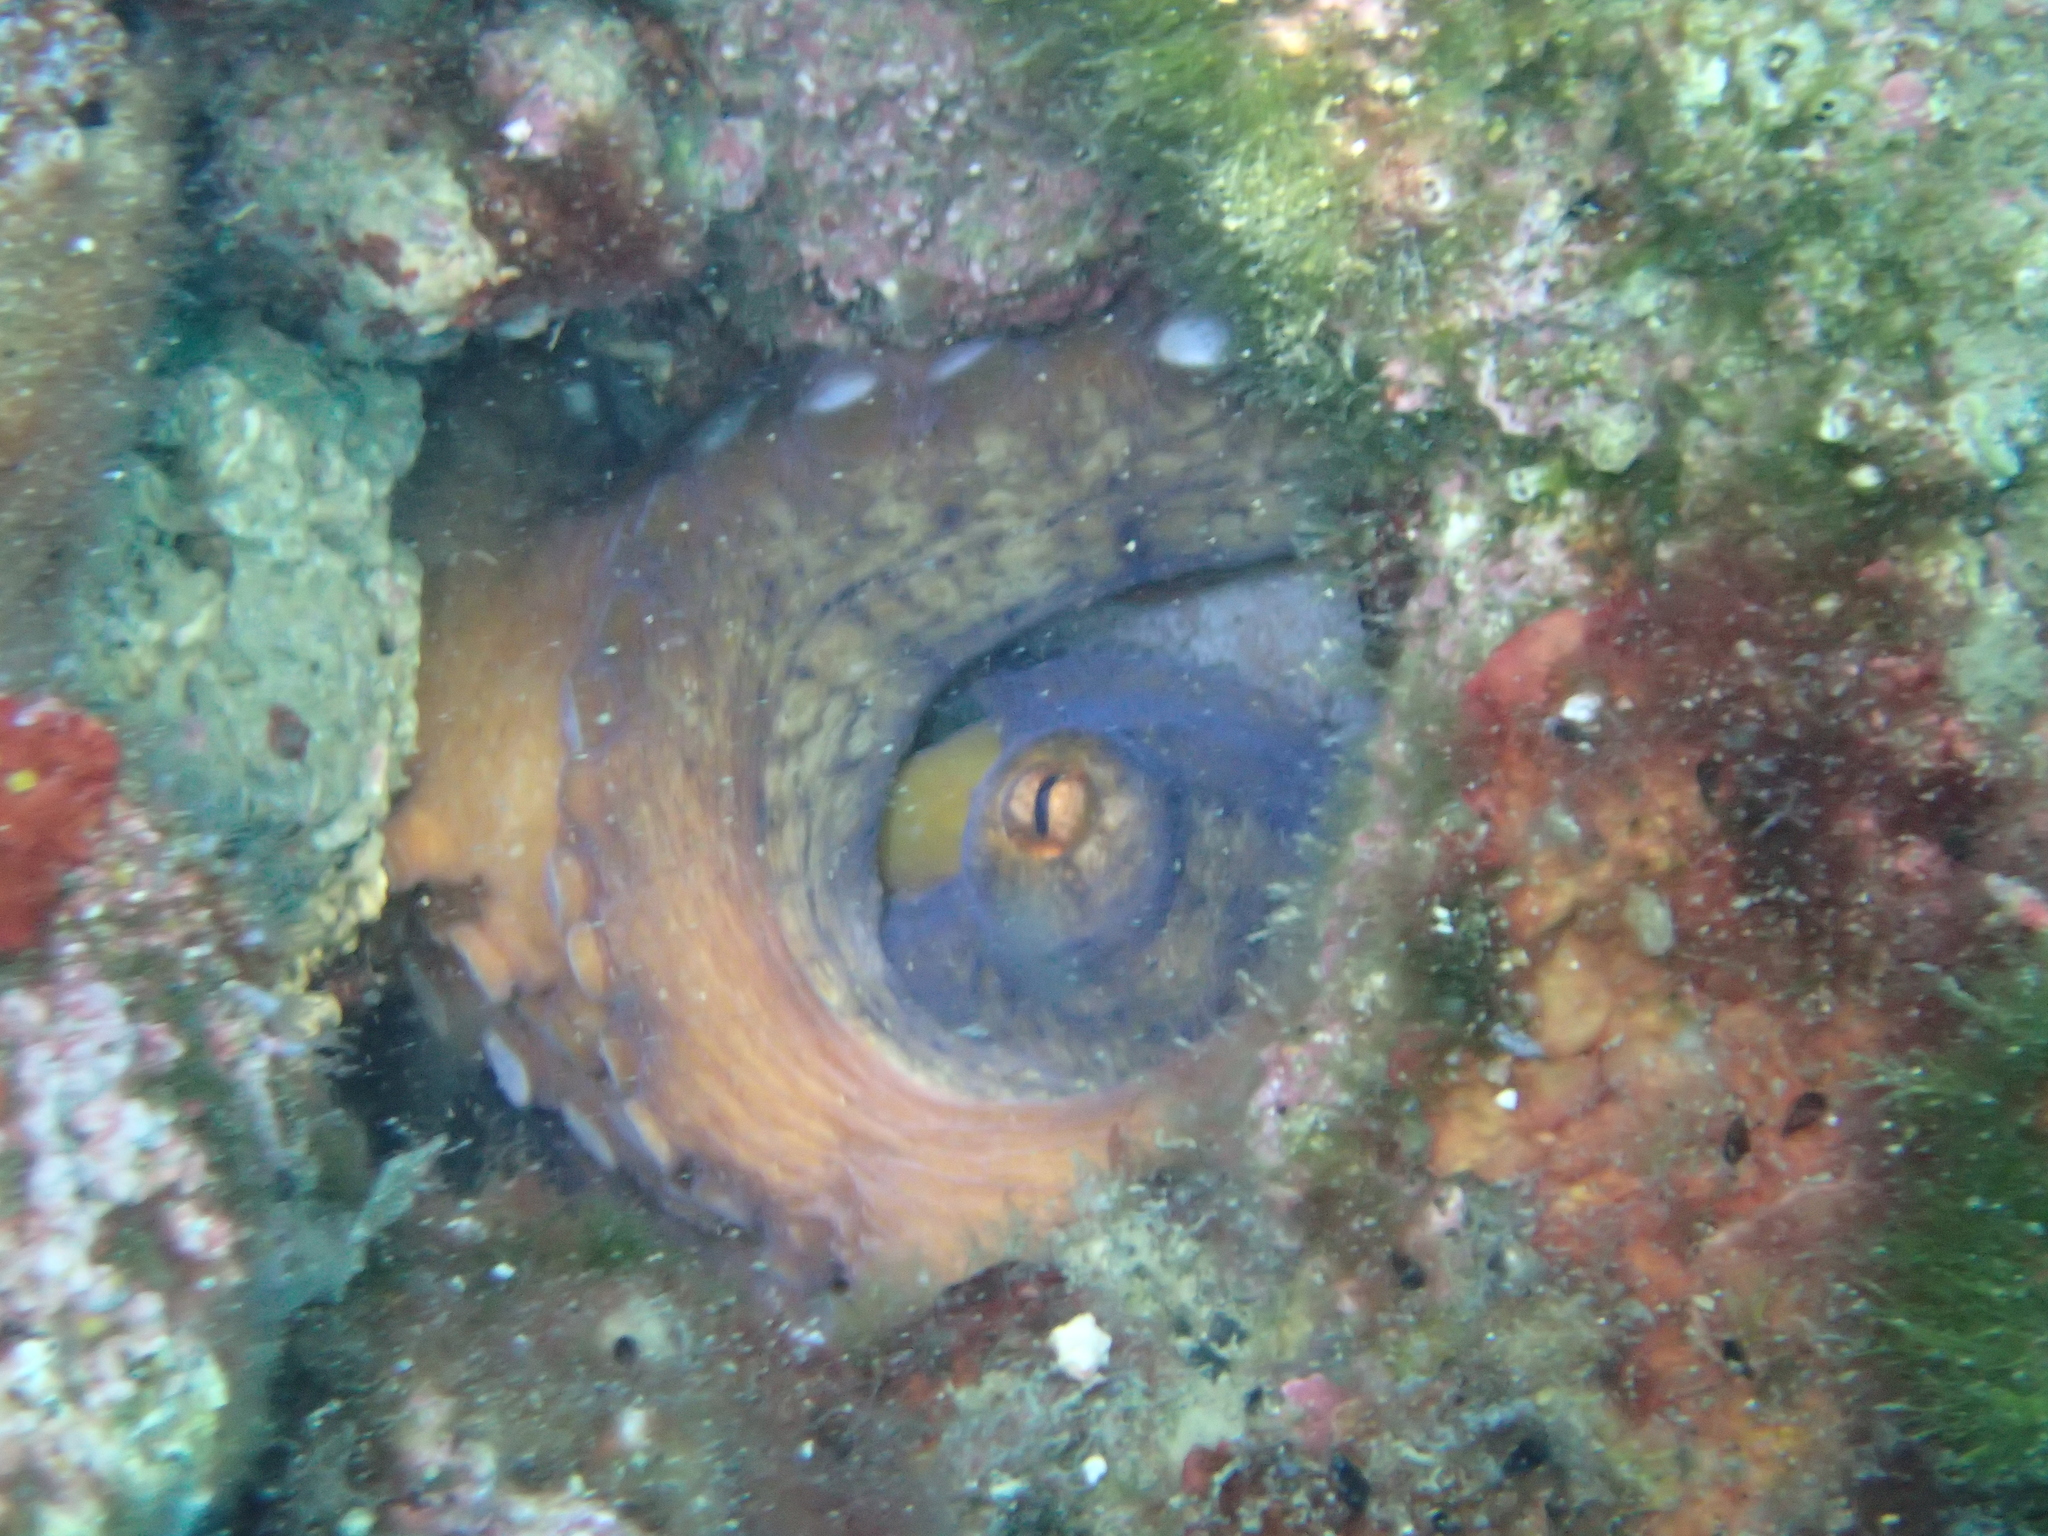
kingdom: Animalia
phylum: Mollusca
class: Cephalopoda
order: Octopoda
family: Octopodidae
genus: Octopus
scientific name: Octopus vulgaris
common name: Common octopus
